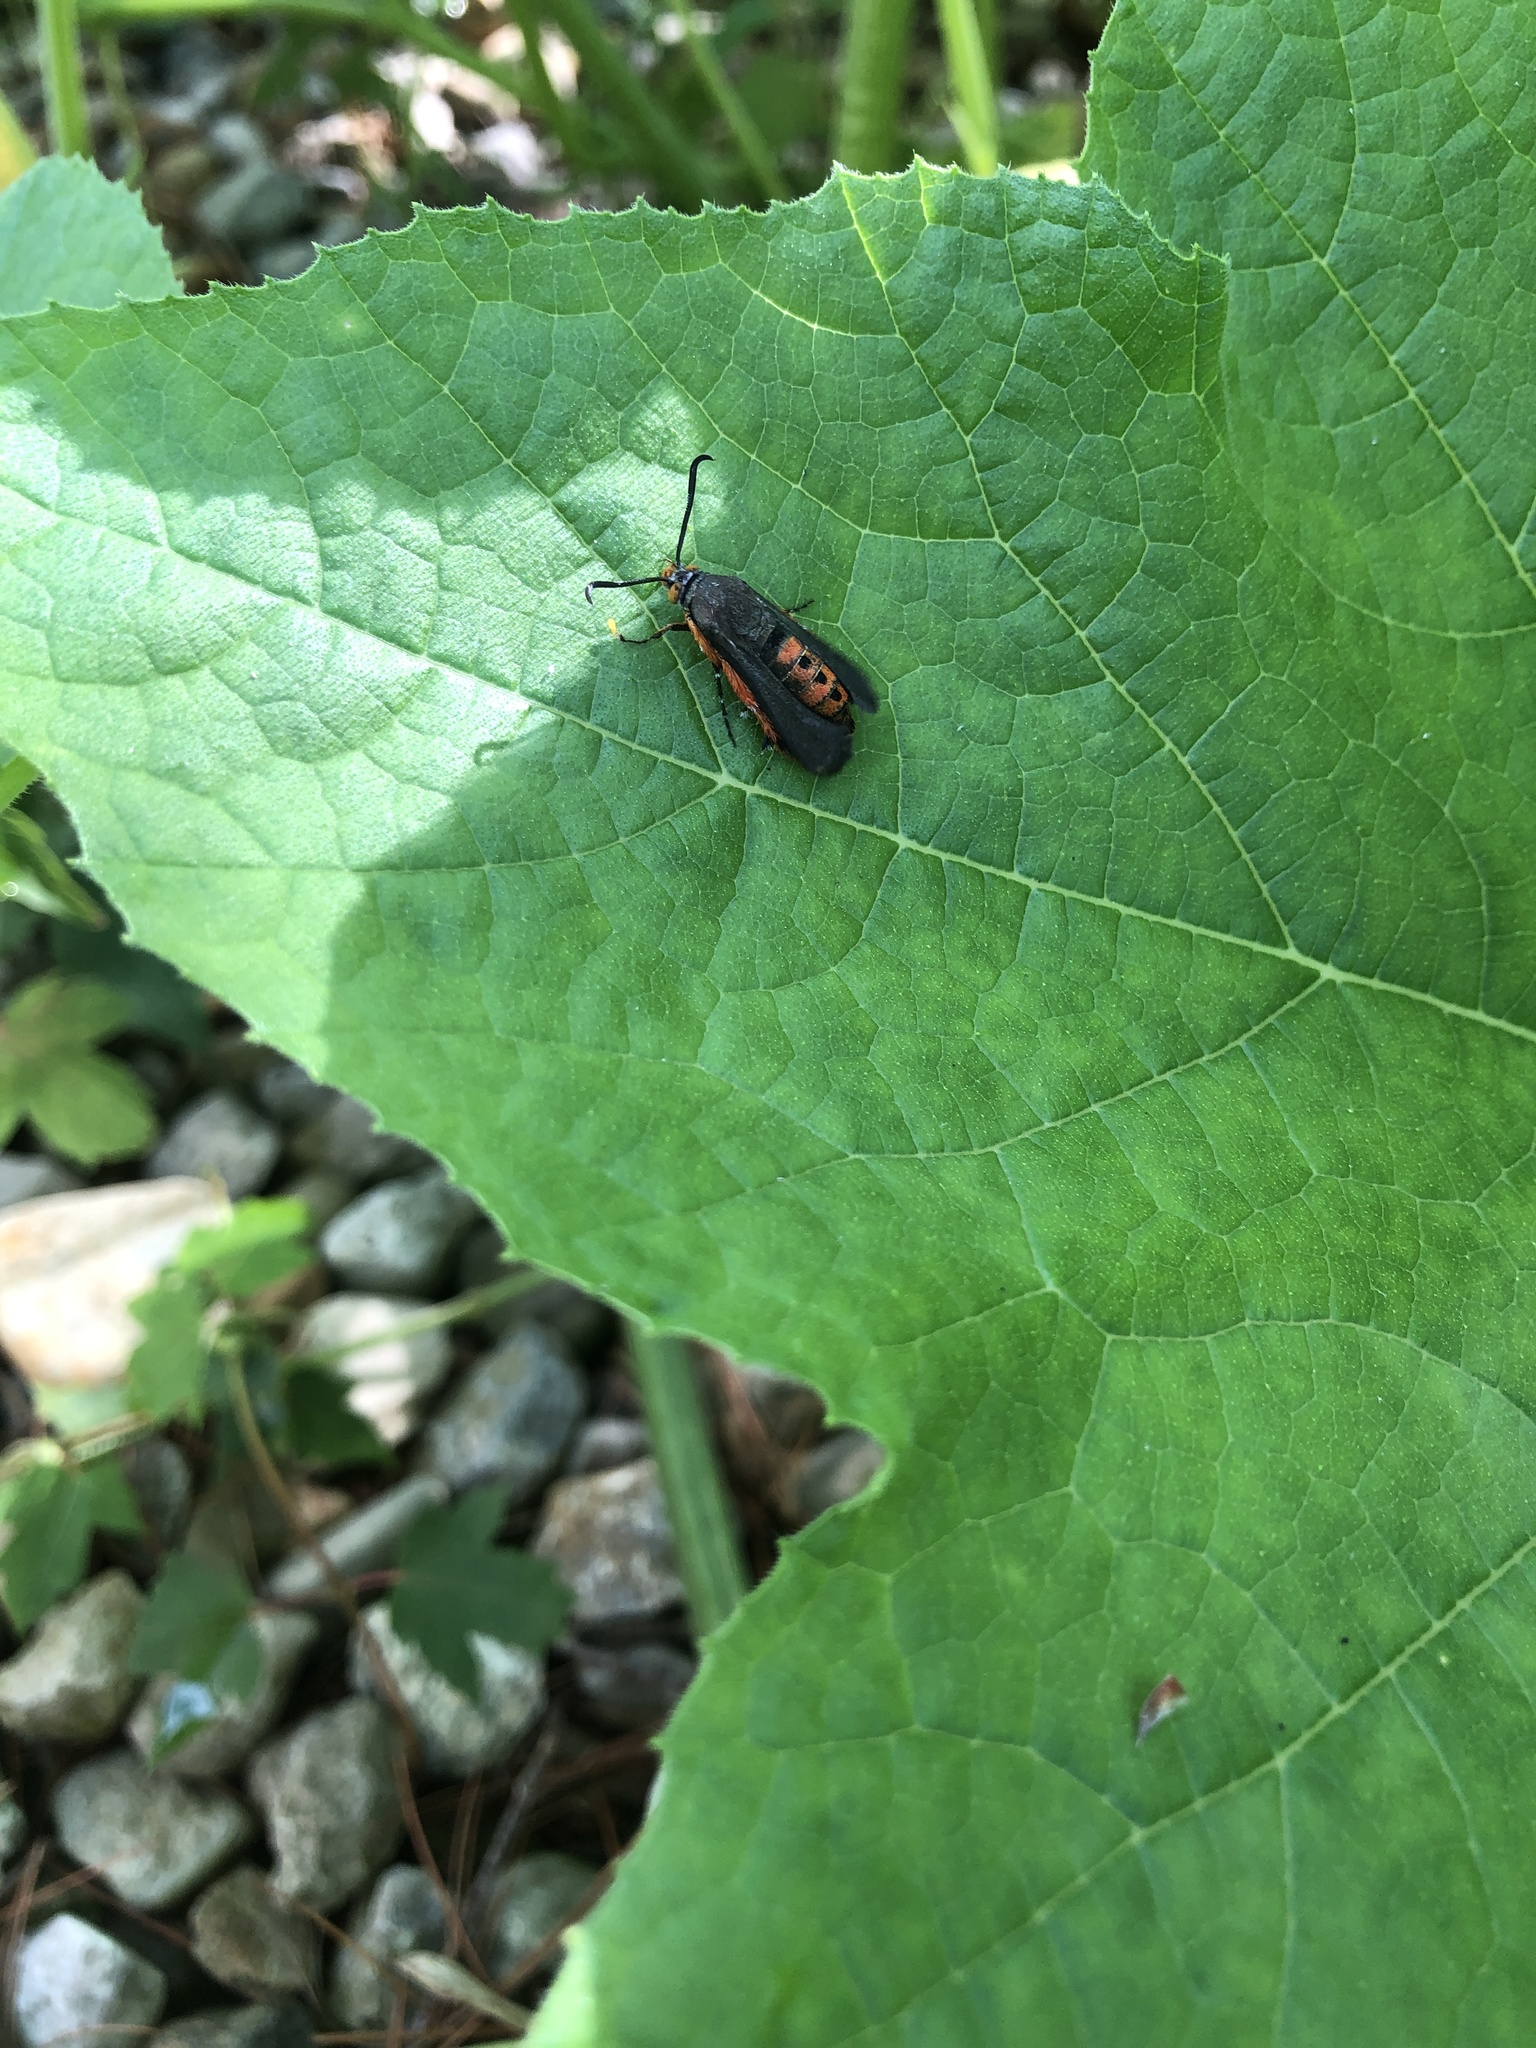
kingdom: Animalia
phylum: Arthropoda
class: Insecta
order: Lepidoptera
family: Sesiidae
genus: Eichlinia
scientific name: Eichlinia cucurbitae
